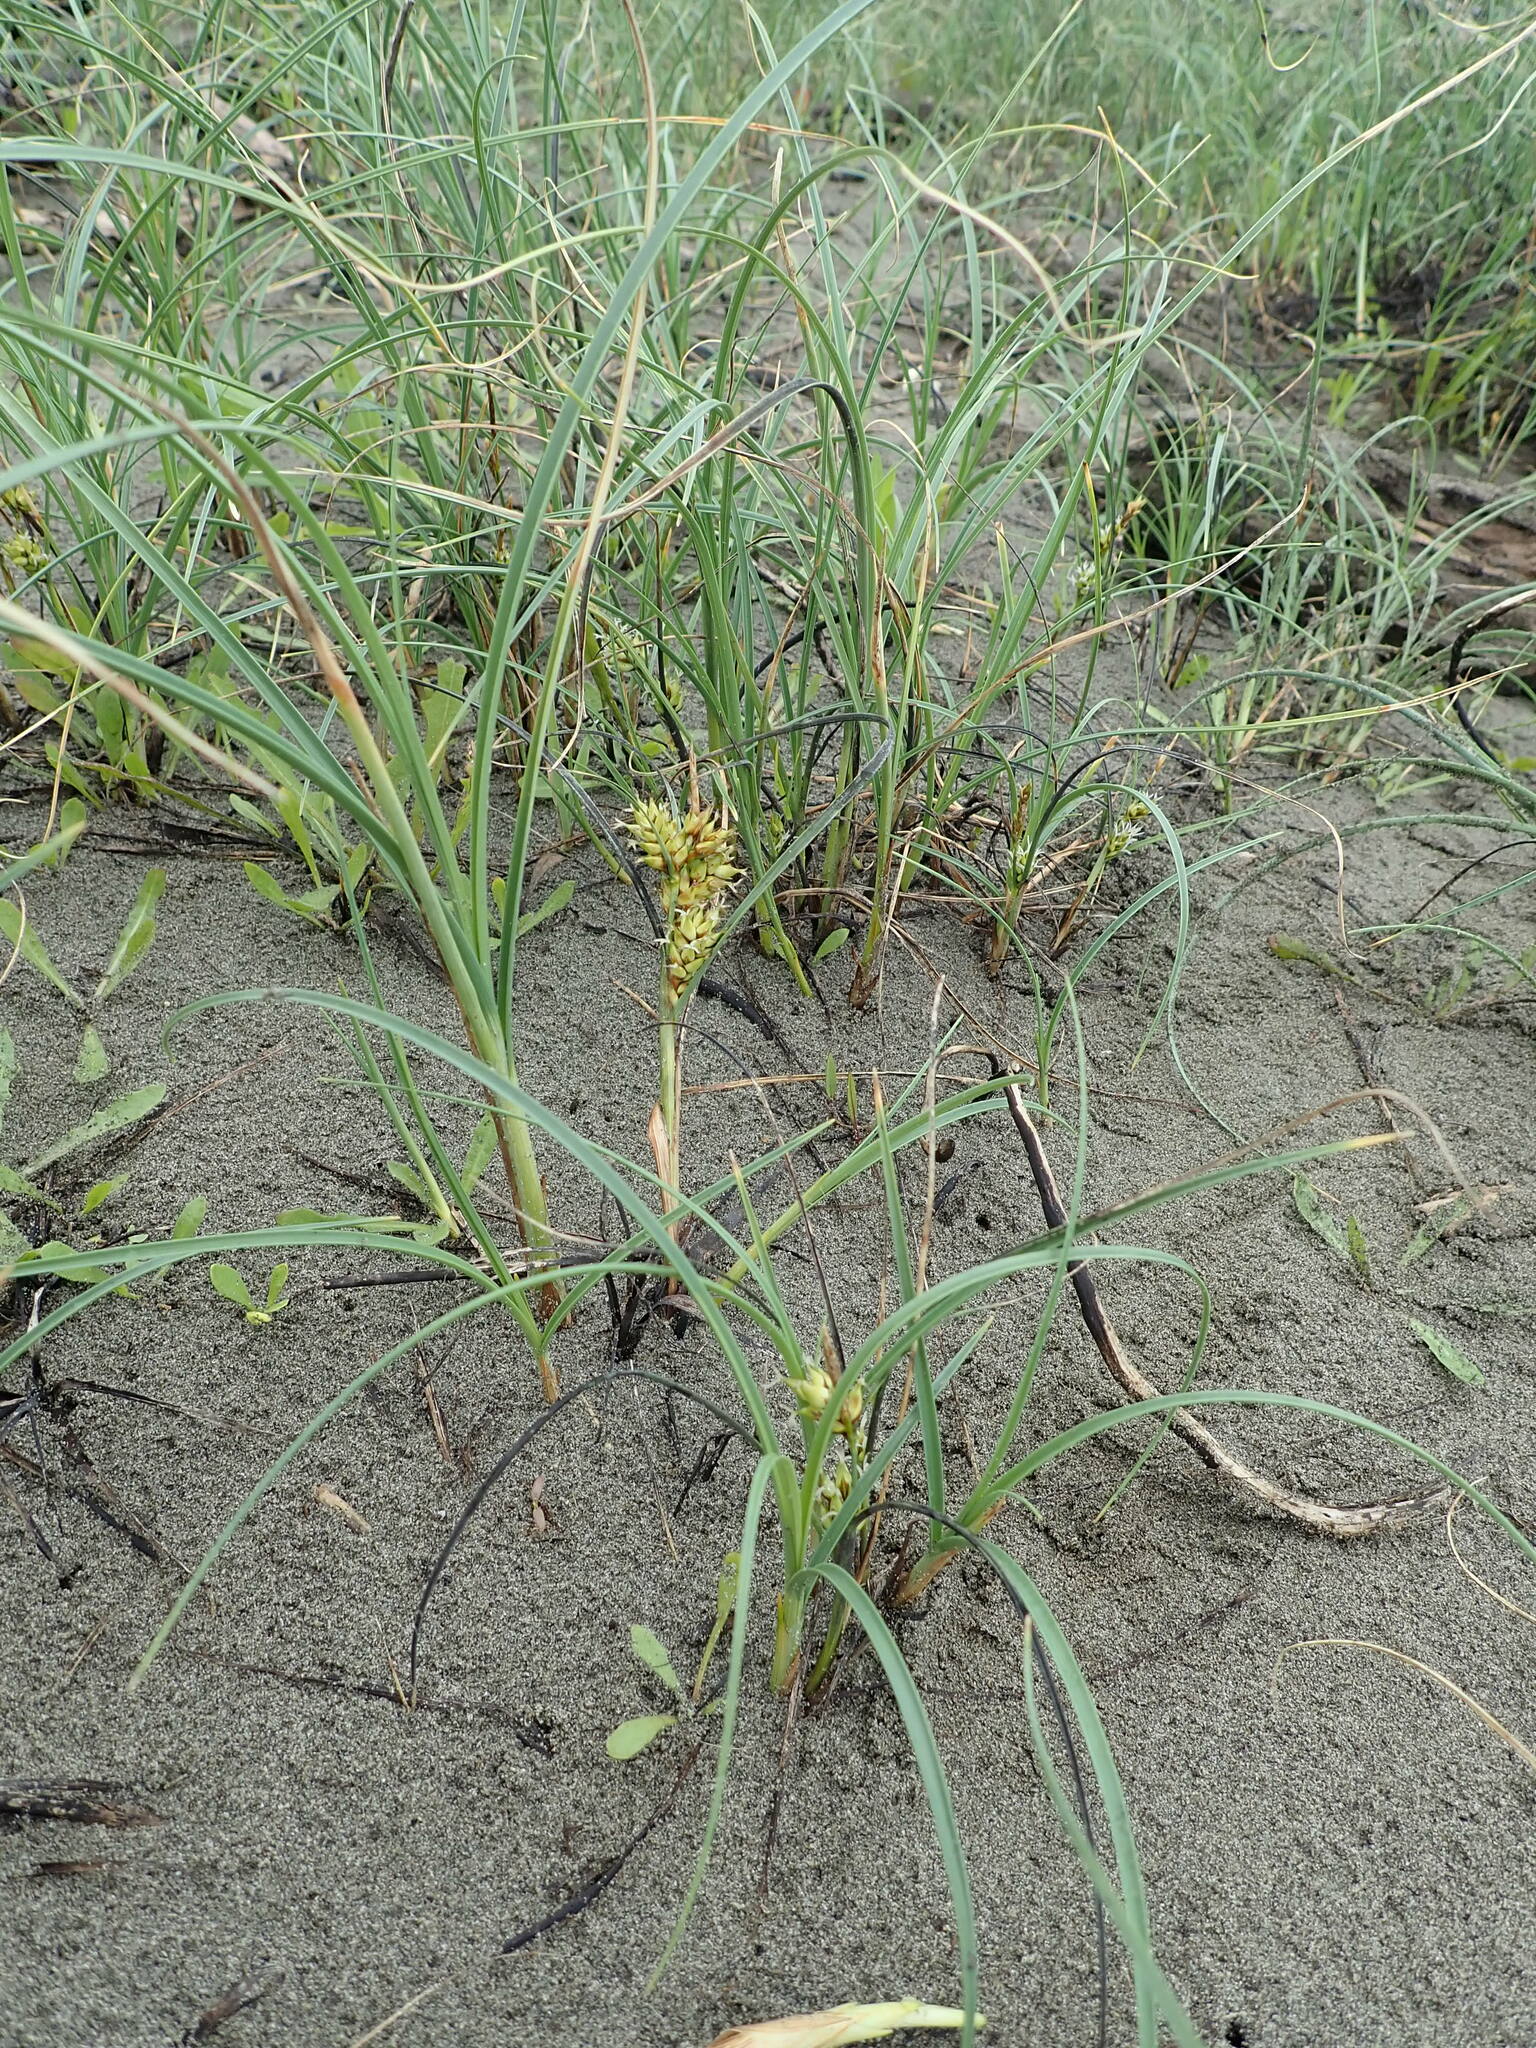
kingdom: Plantae
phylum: Tracheophyta
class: Liliopsida
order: Poales
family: Cyperaceae
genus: Carex
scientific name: Carex pumila
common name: Dwarf sedge
